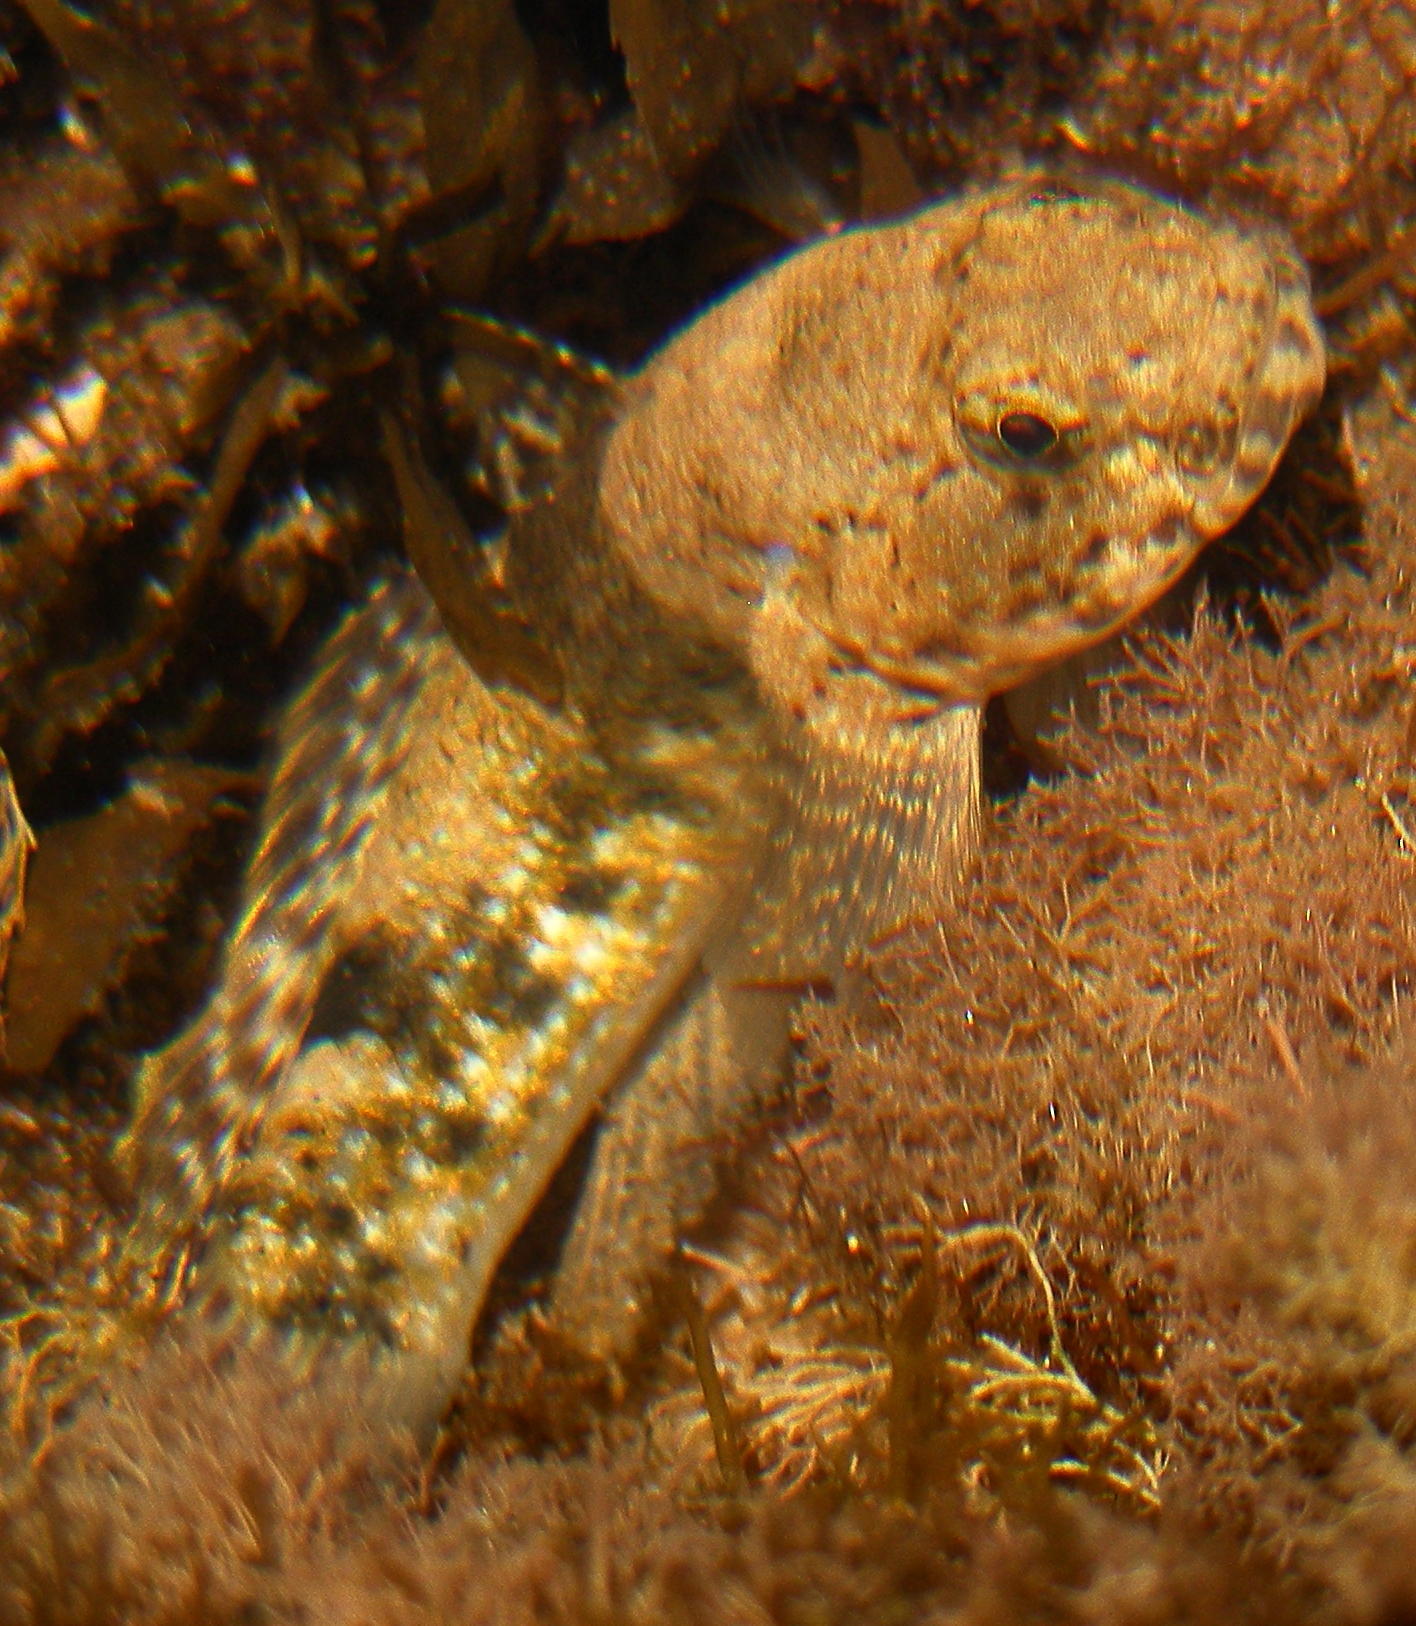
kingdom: Animalia
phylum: Chordata
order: Perciformes
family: Gobiidae
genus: Bathygobius
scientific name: Bathygobius coalitus
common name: Whitespotted goby
